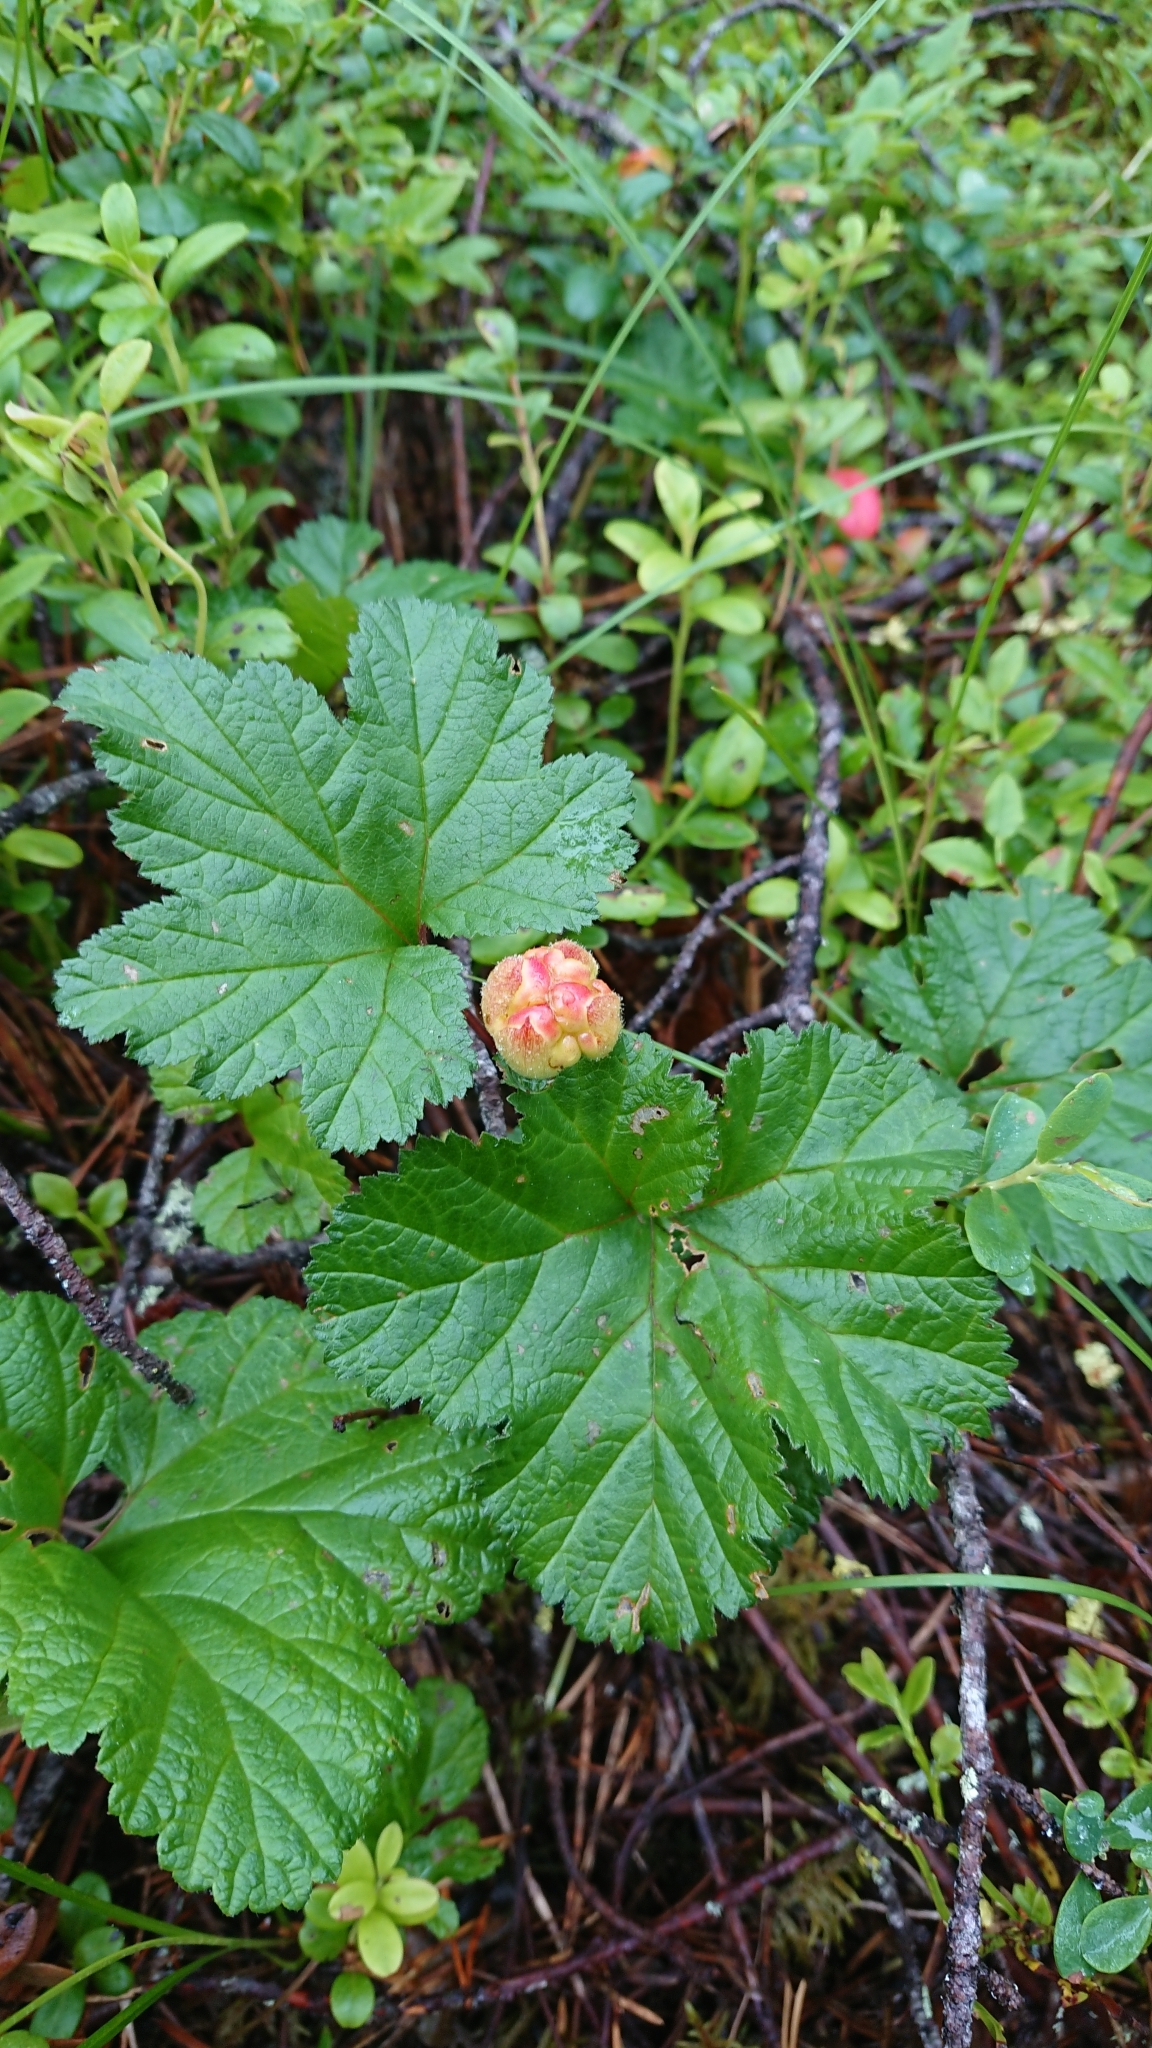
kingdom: Plantae
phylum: Tracheophyta
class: Magnoliopsida
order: Rosales
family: Rosaceae
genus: Rubus
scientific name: Rubus chamaemorus
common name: Cloudberry
